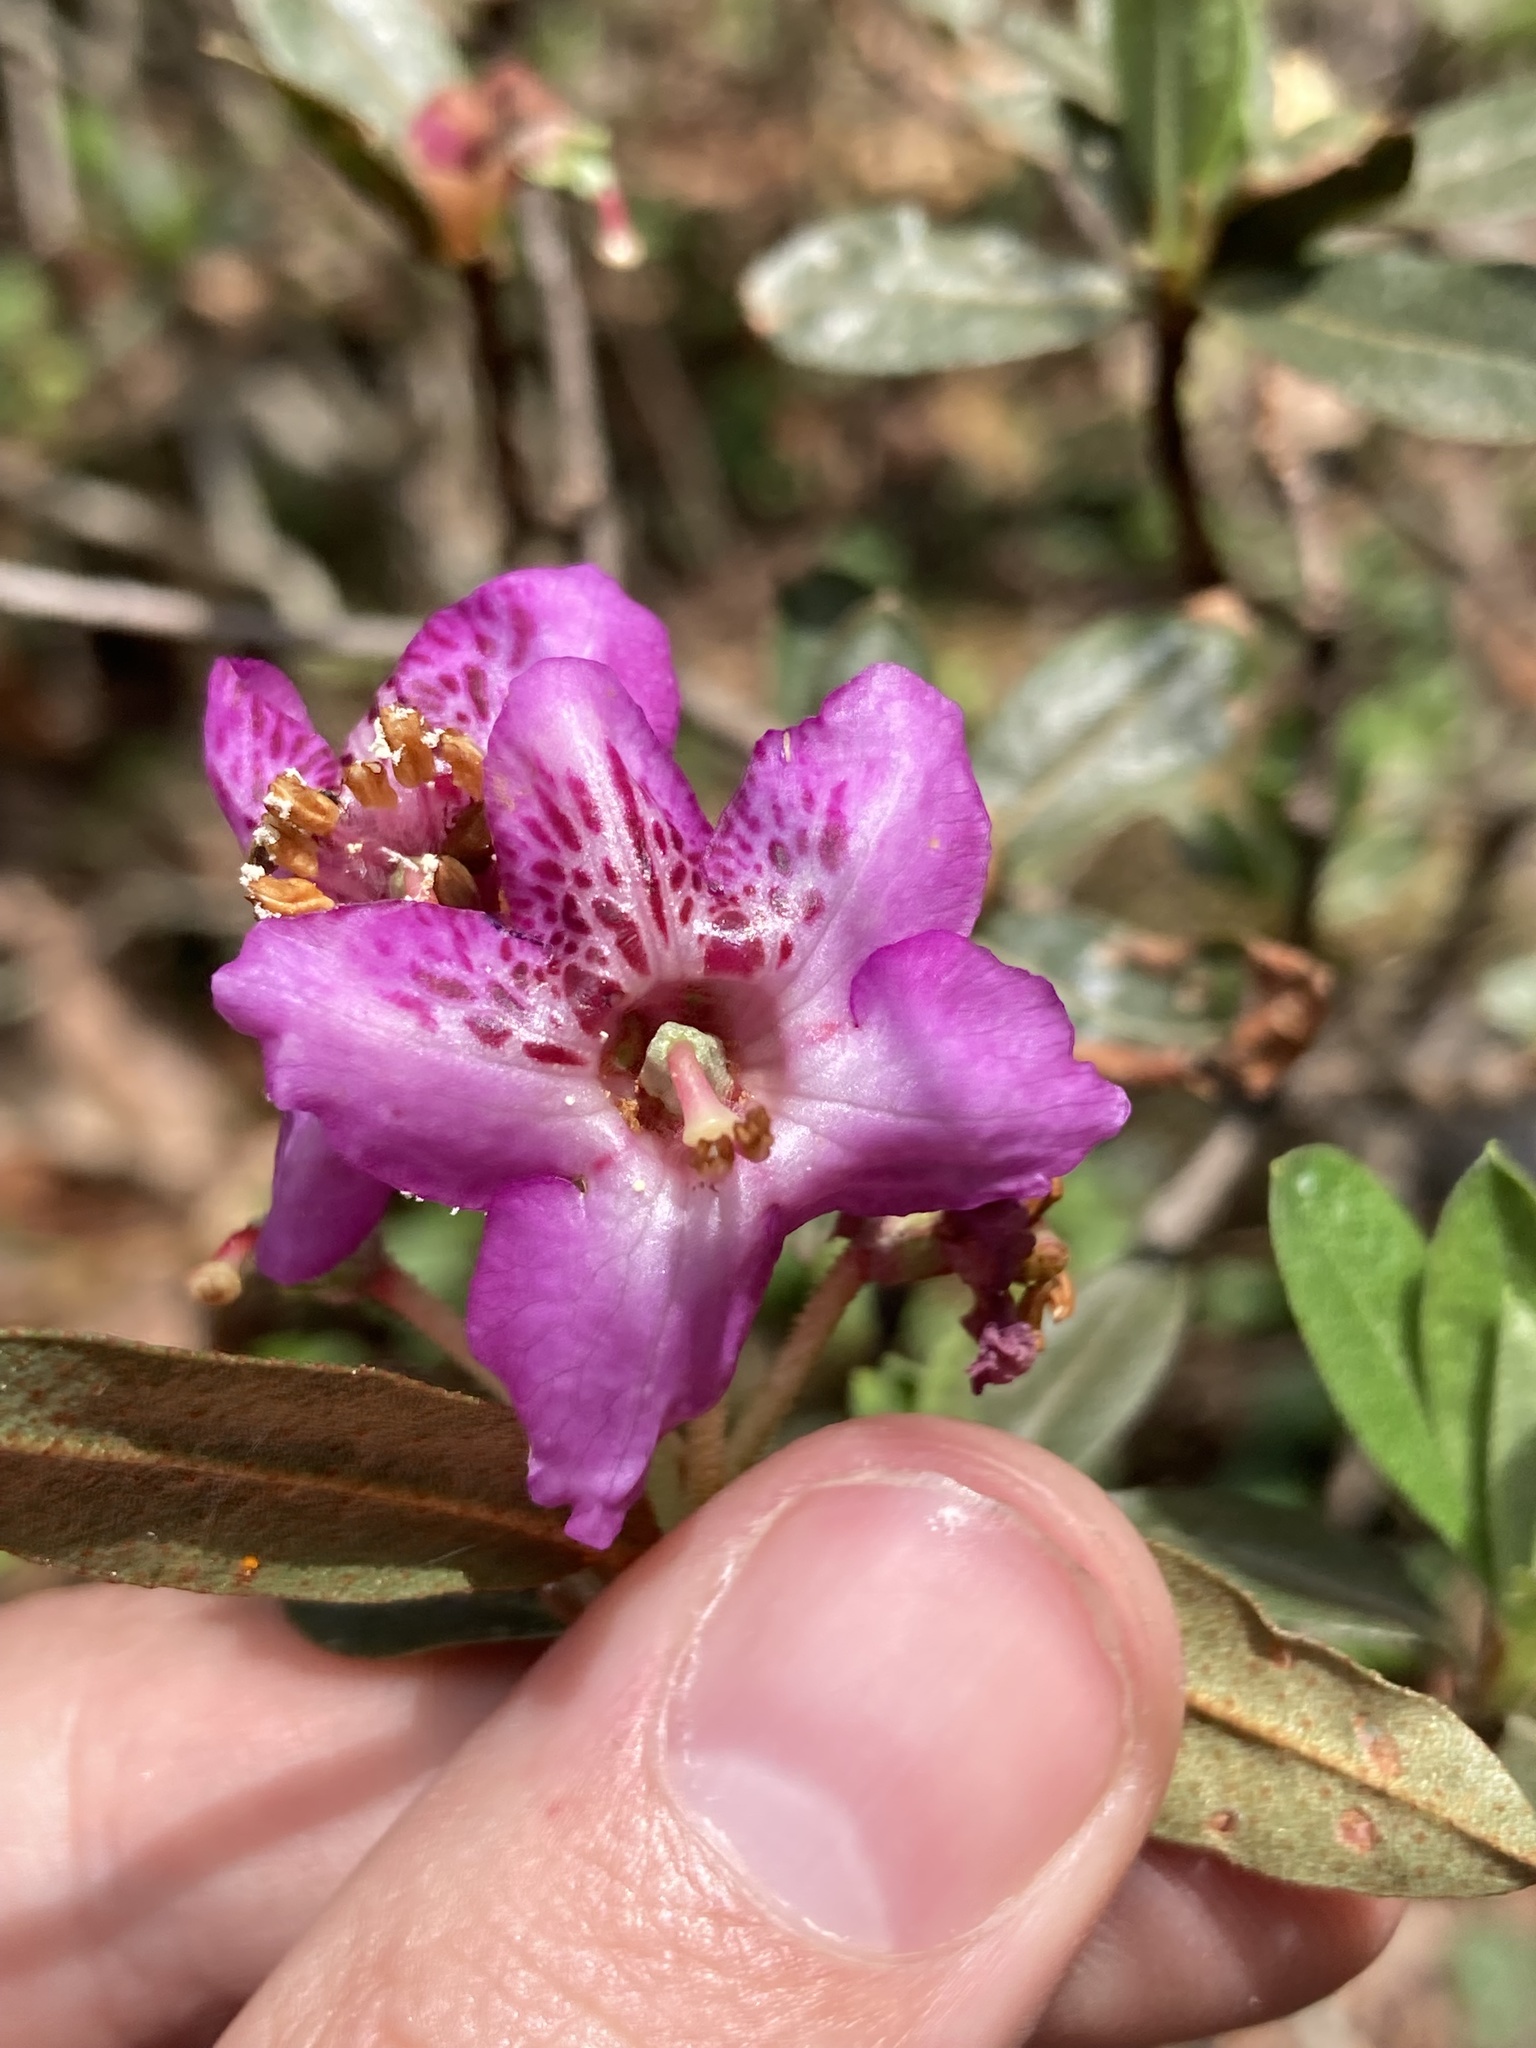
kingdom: Plantae
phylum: Tracheophyta
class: Magnoliopsida
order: Ericales
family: Ericaceae
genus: Rhododendron
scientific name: Rhododendron lepidotum
